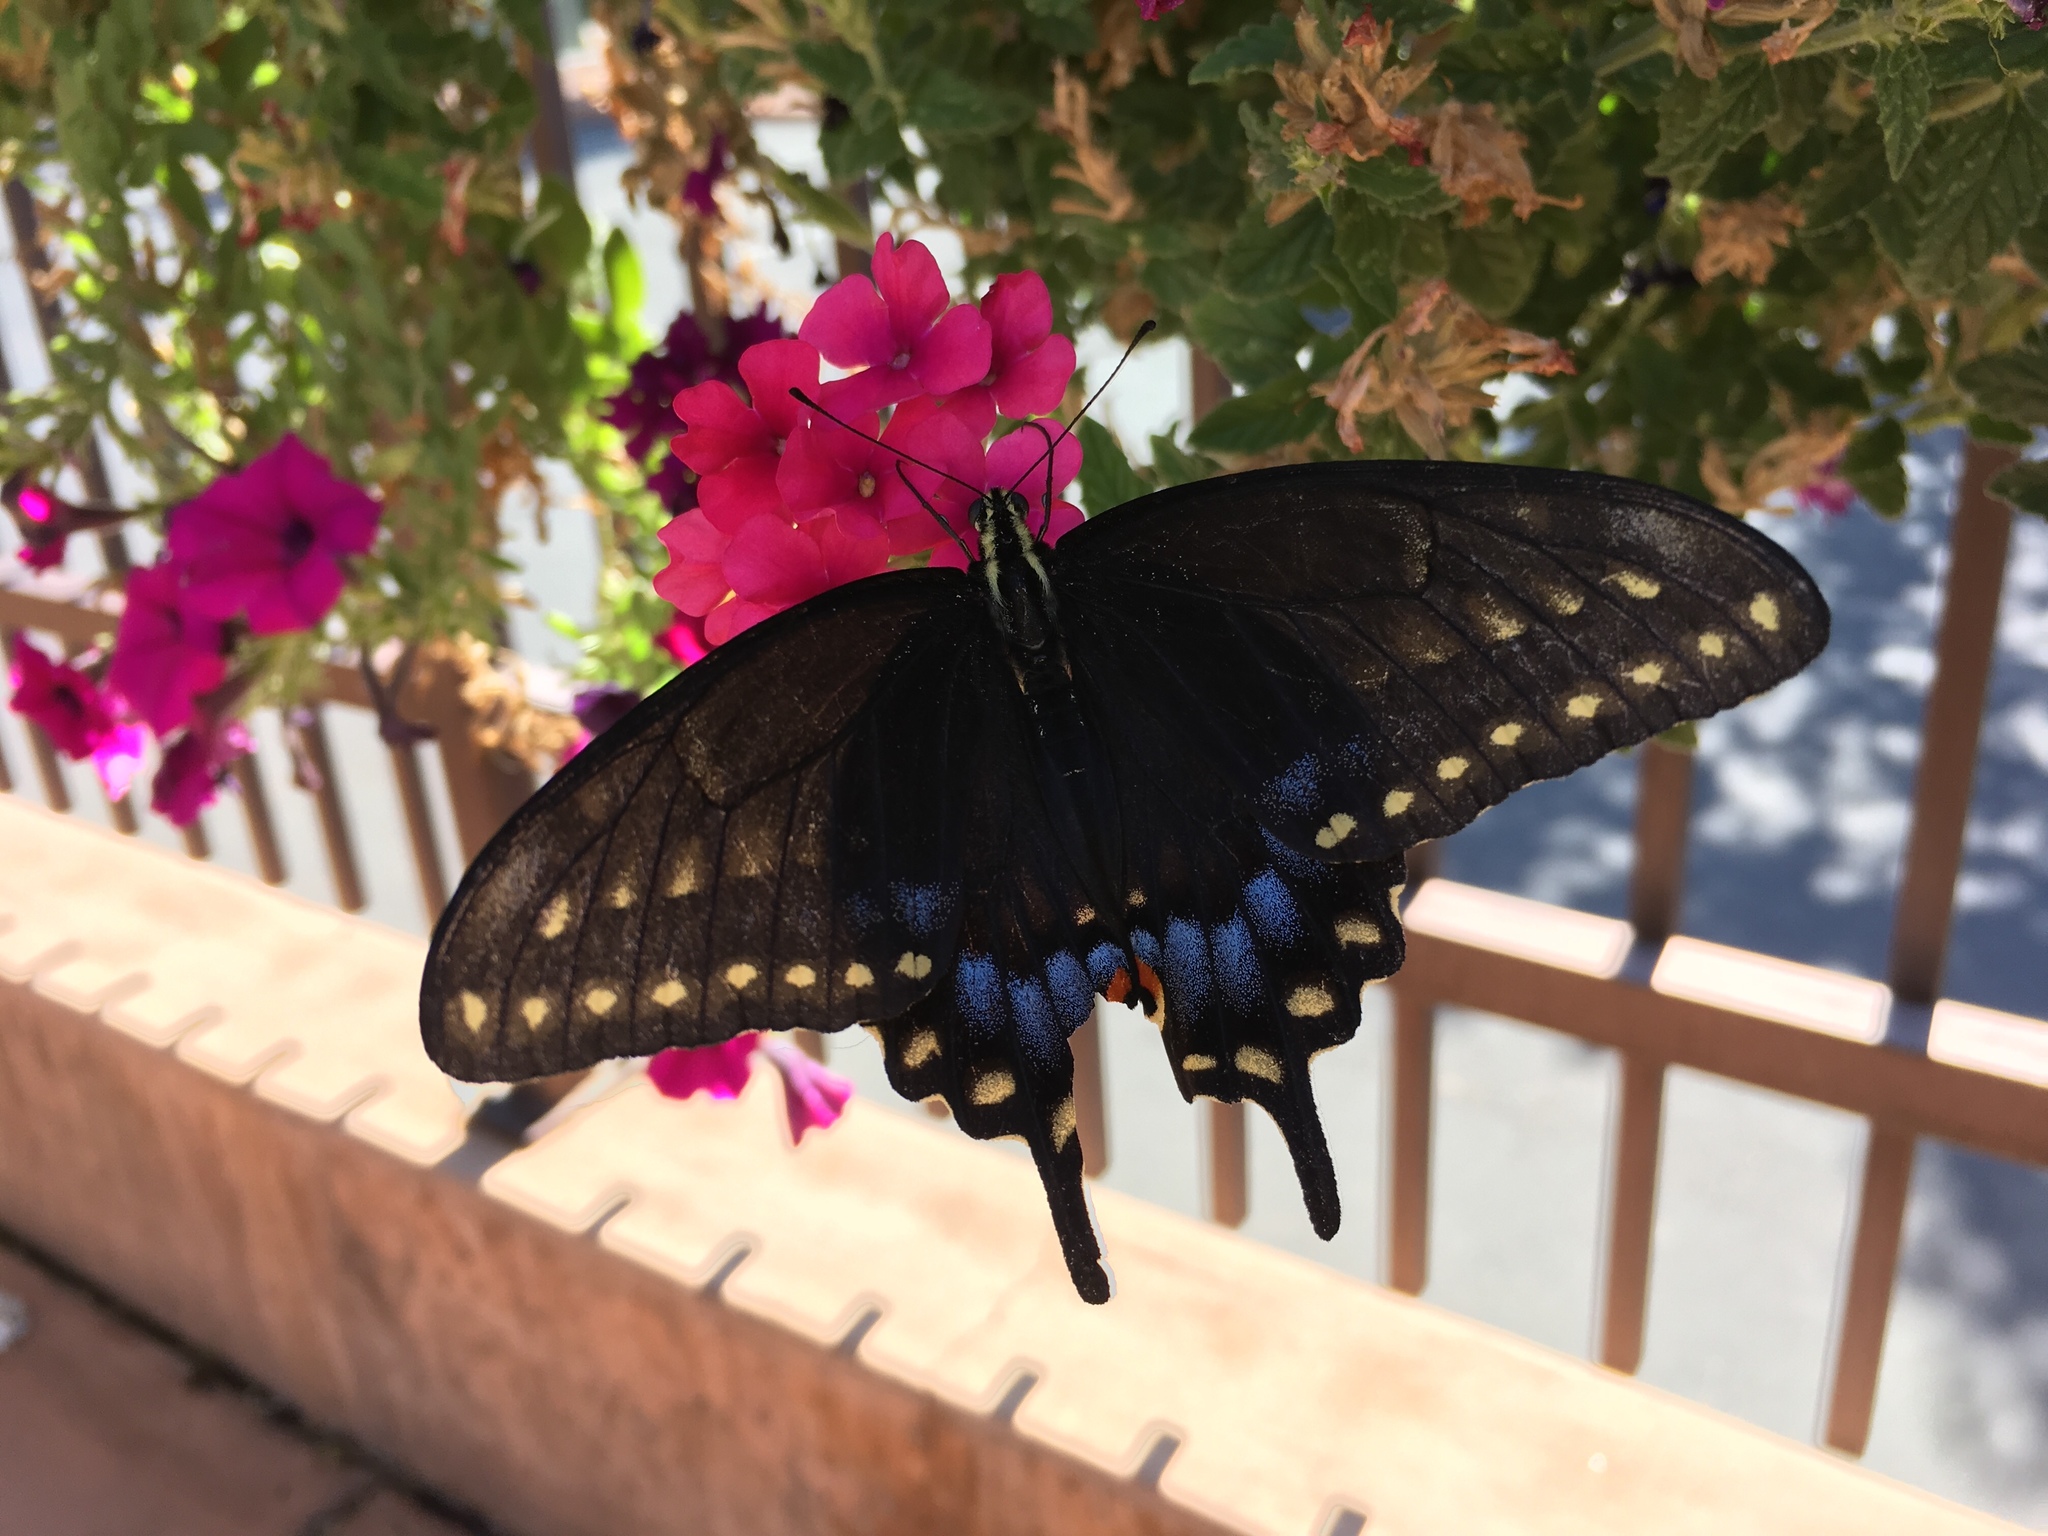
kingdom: Animalia
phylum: Arthropoda
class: Insecta
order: Lepidoptera
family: Papilionidae
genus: Papilio
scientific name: Papilio
